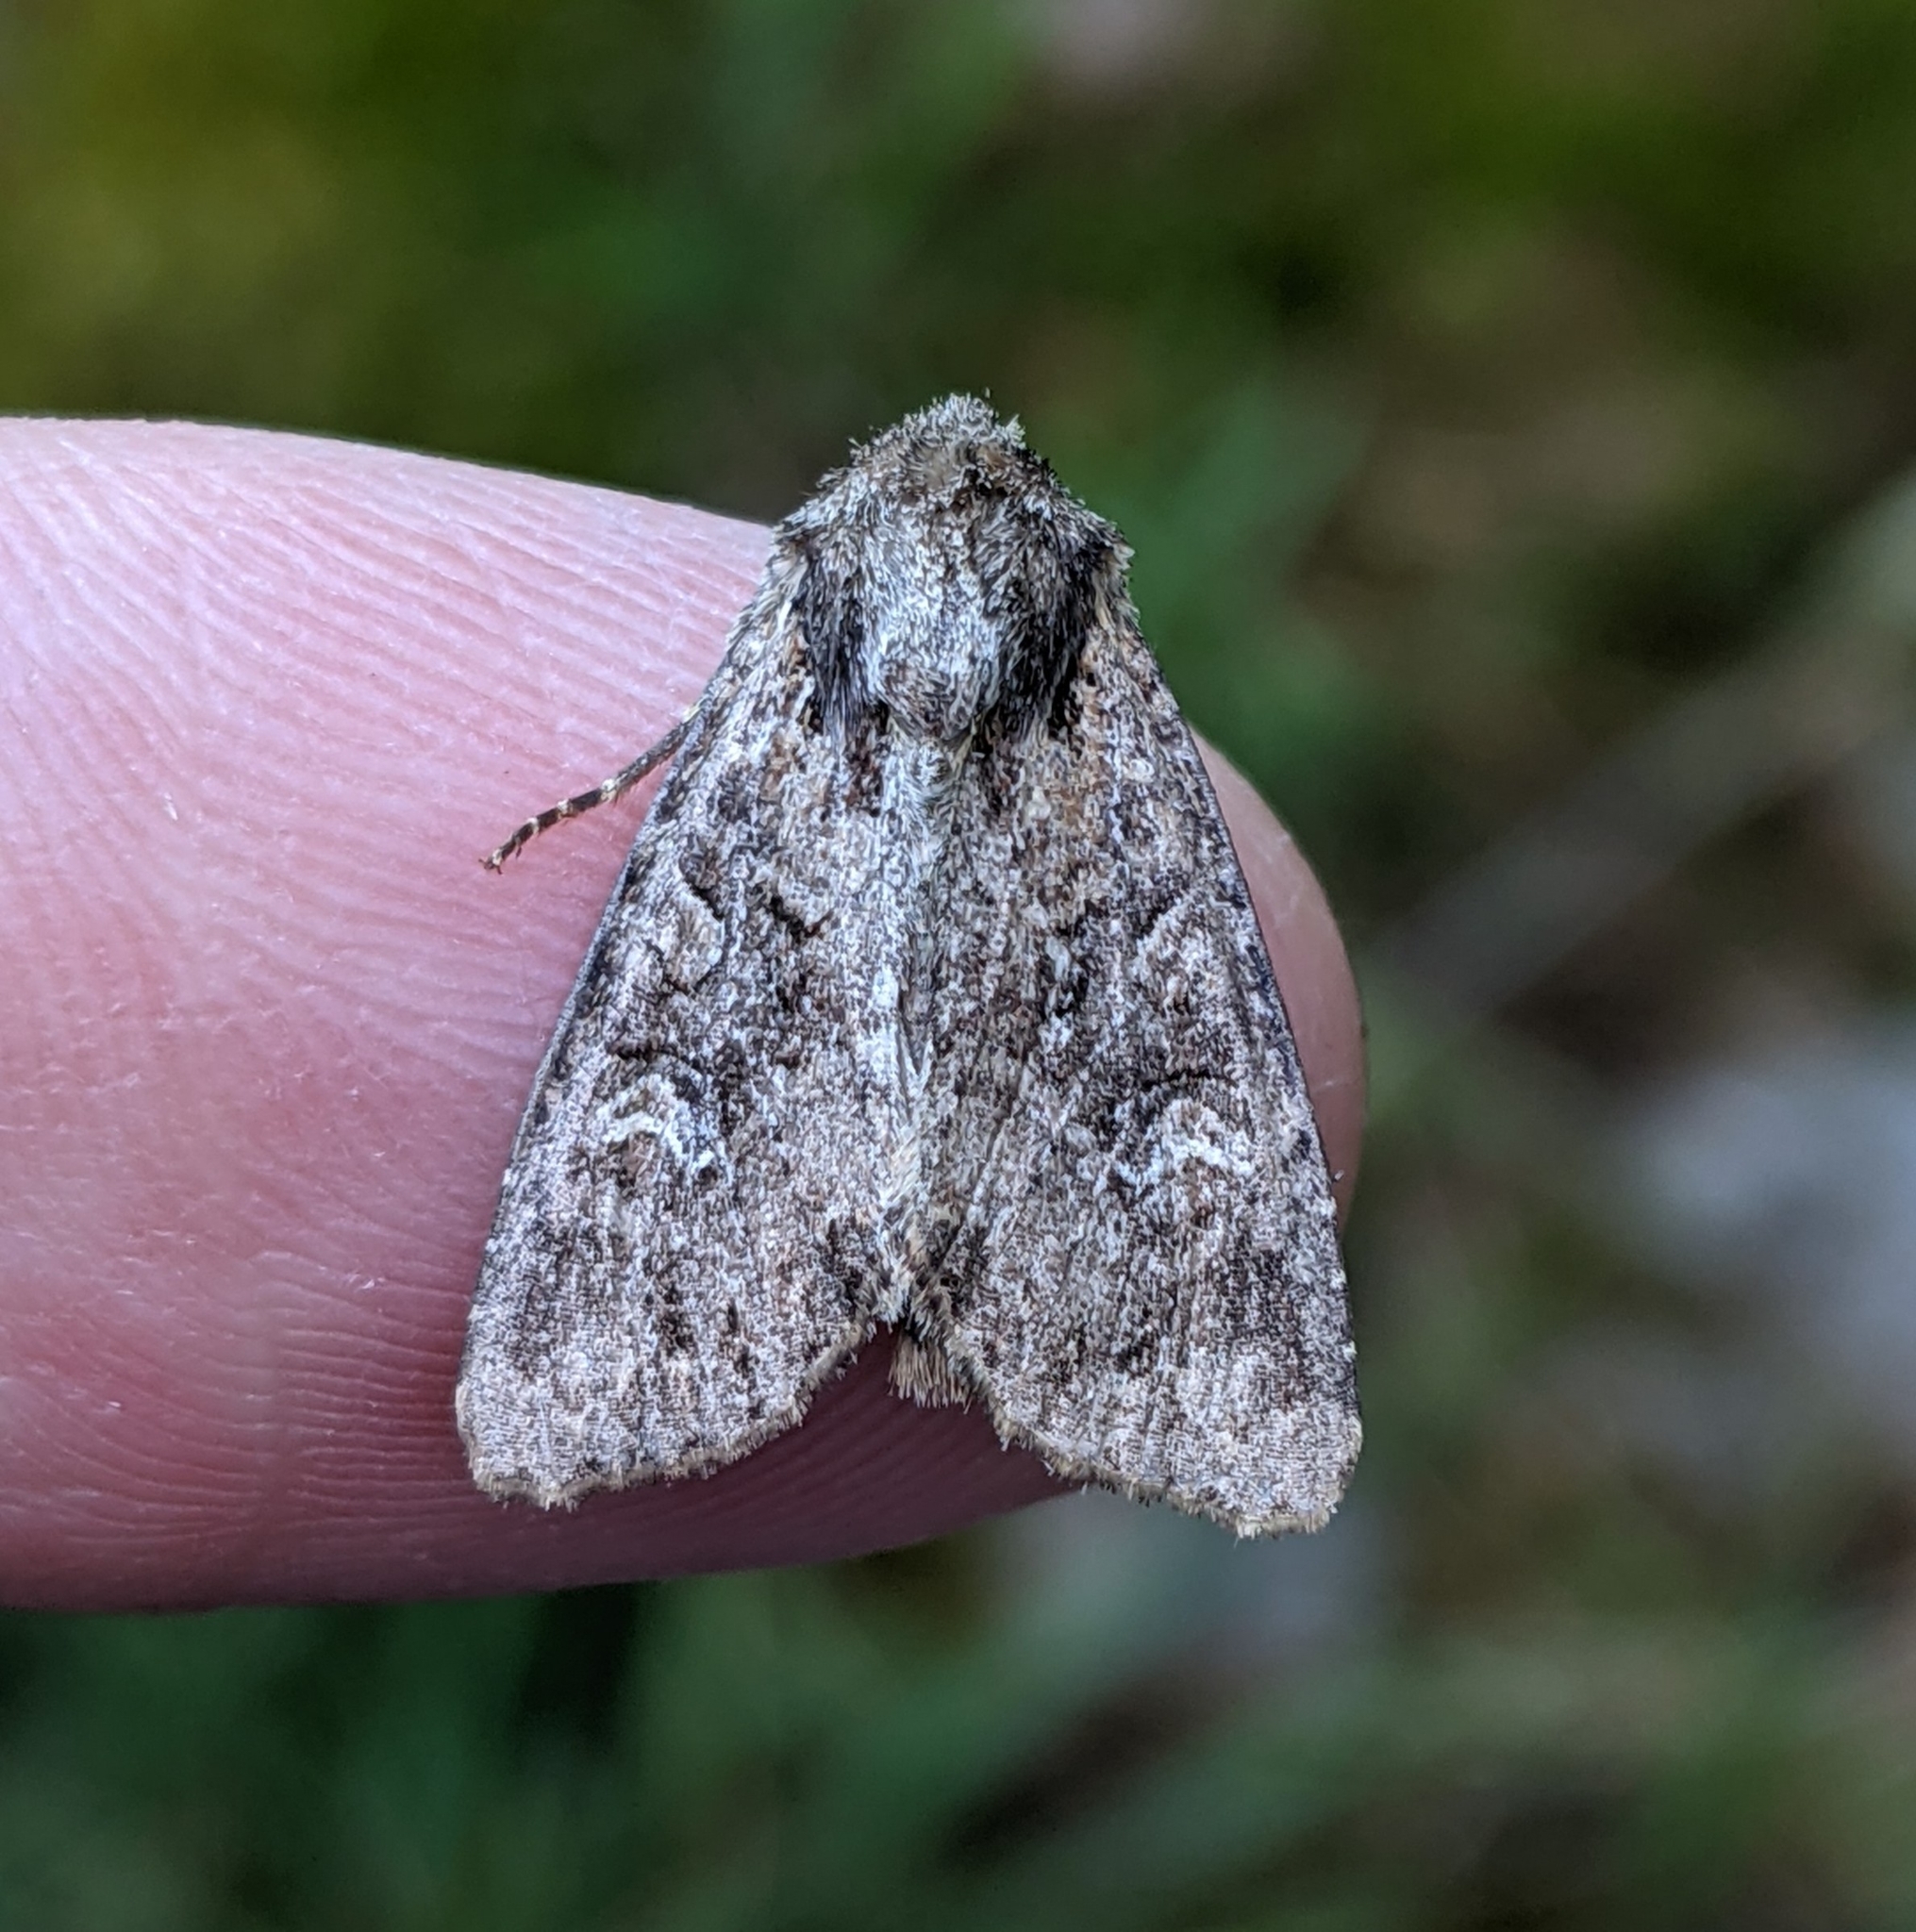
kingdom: Animalia
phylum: Arthropoda
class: Insecta
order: Lepidoptera
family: Noctuidae
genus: Apamea
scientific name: Apamea unanimis
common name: Small clouded brindle
